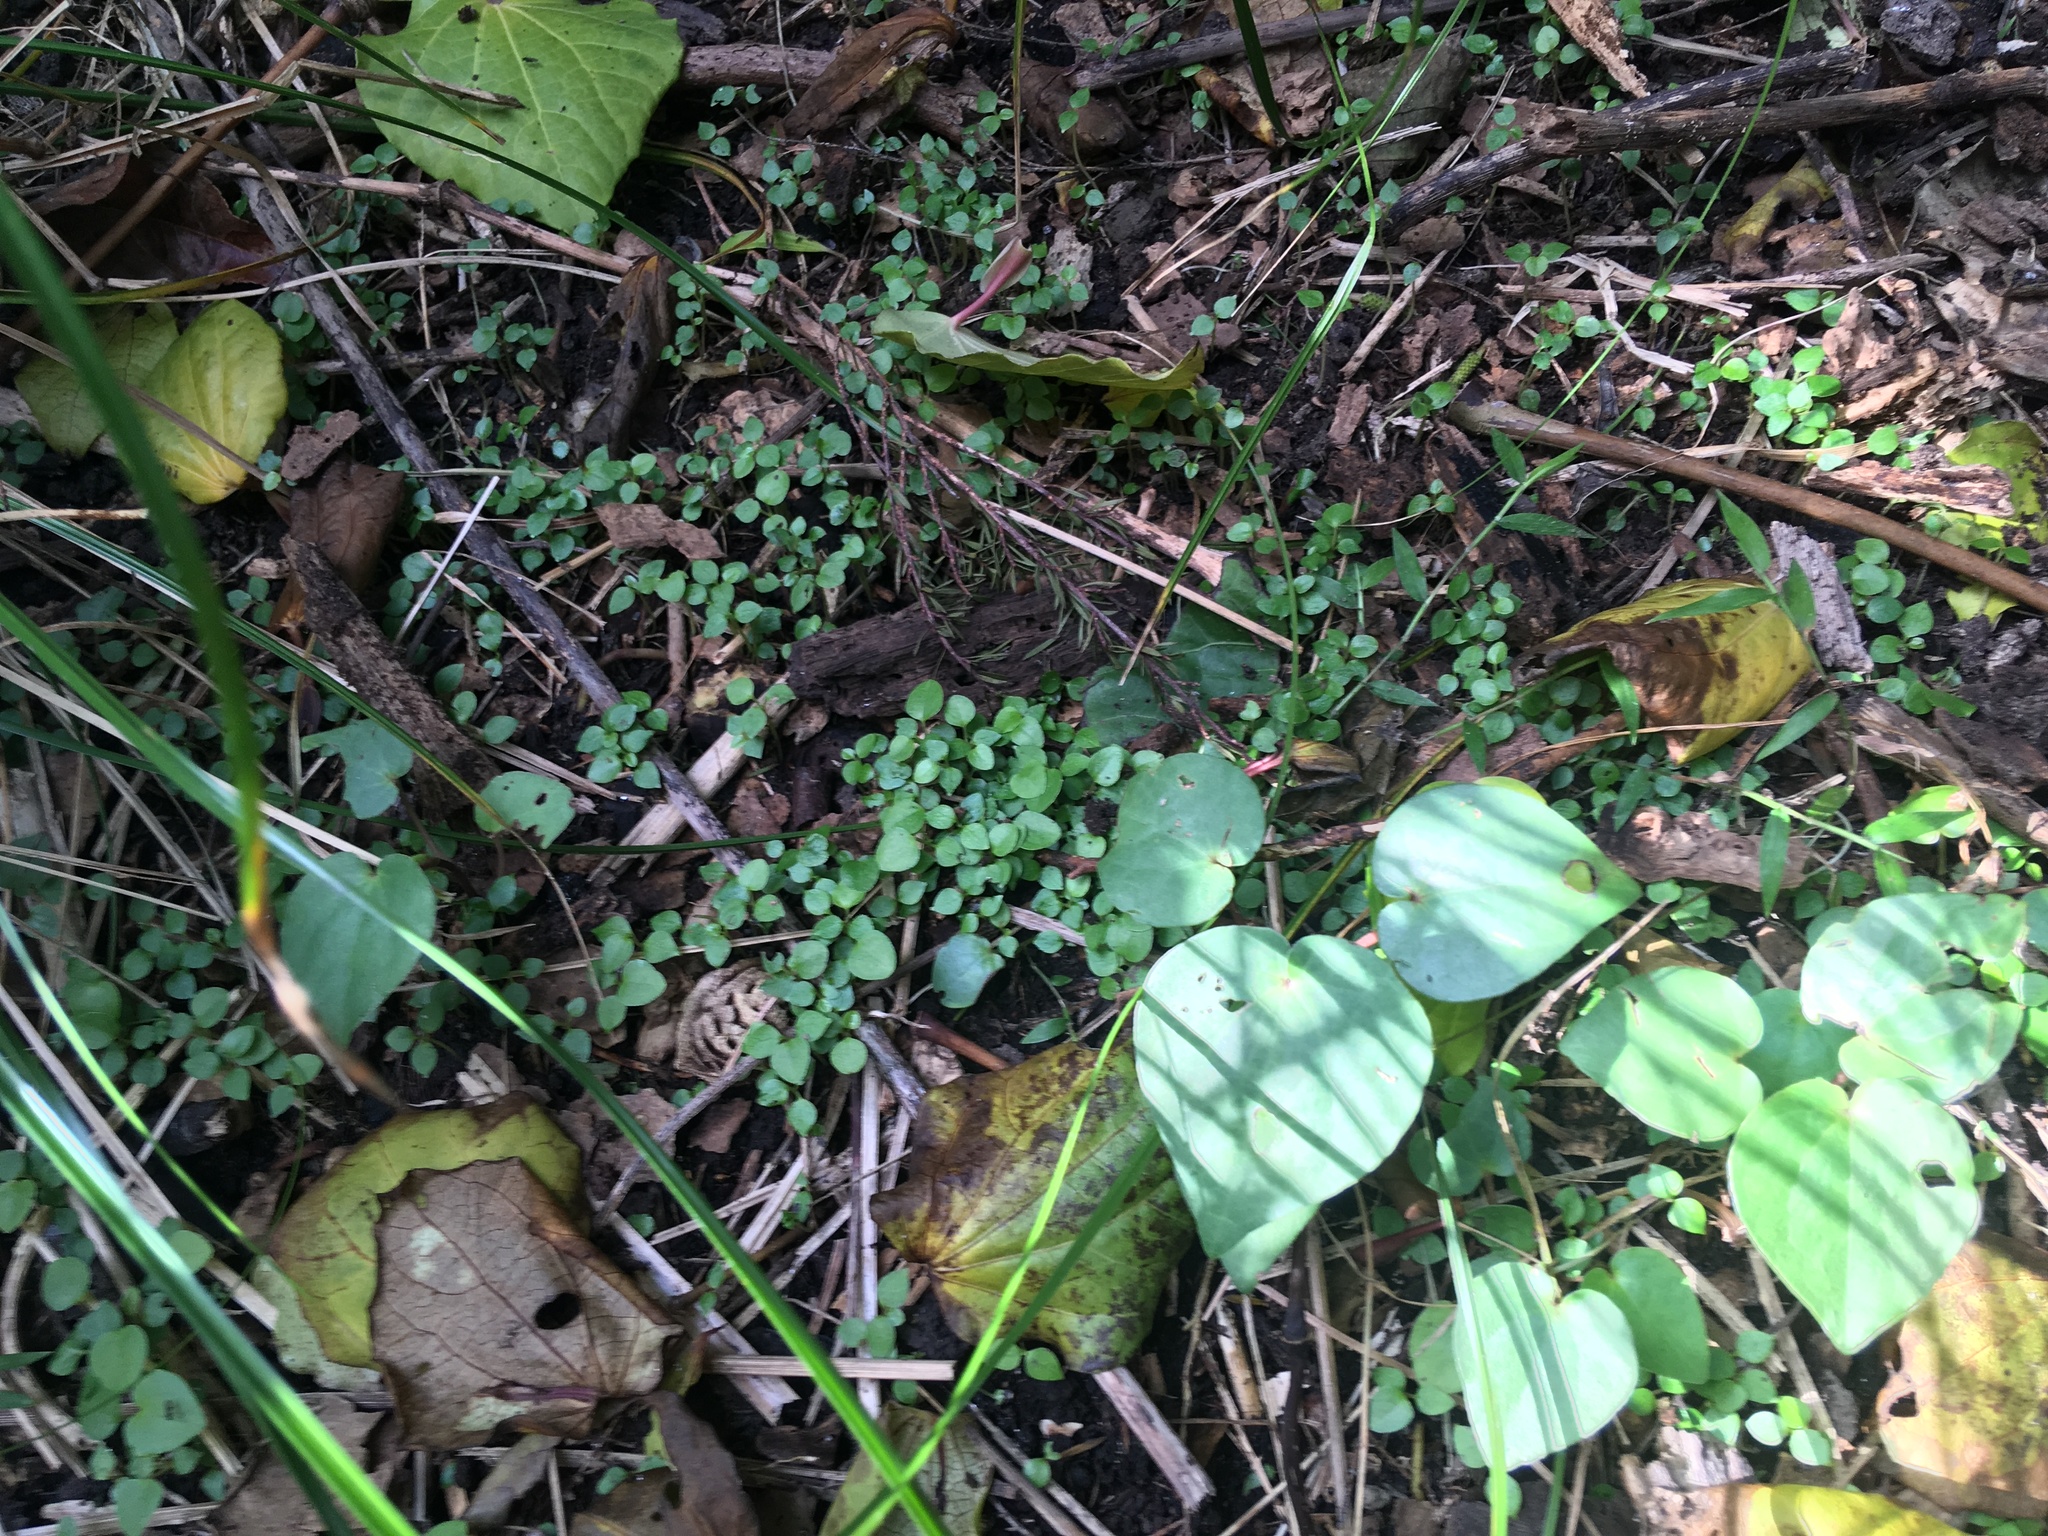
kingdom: Plantae
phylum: Tracheophyta
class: Magnoliopsida
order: Piperales
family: Piperaceae
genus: Macropiper
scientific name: Macropiper excelsum
